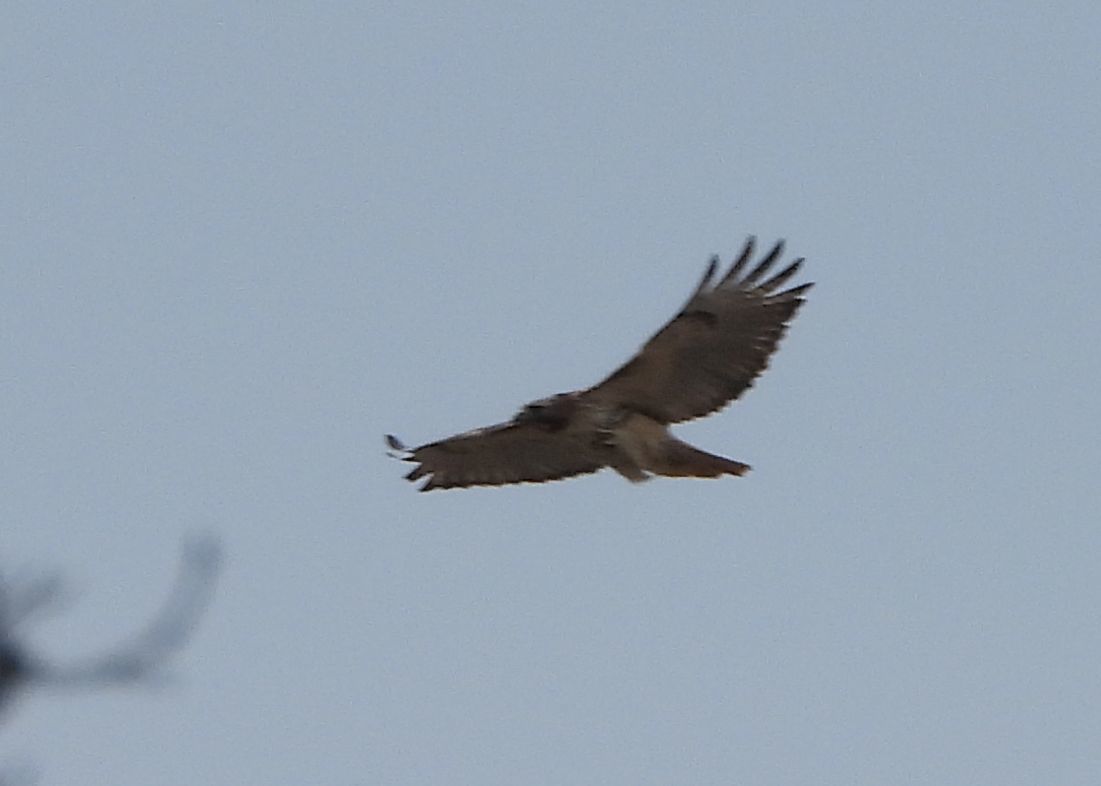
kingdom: Animalia
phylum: Chordata
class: Aves
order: Accipitriformes
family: Accipitridae
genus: Buteo
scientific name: Buteo jamaicensis
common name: Red-tailed hawk
